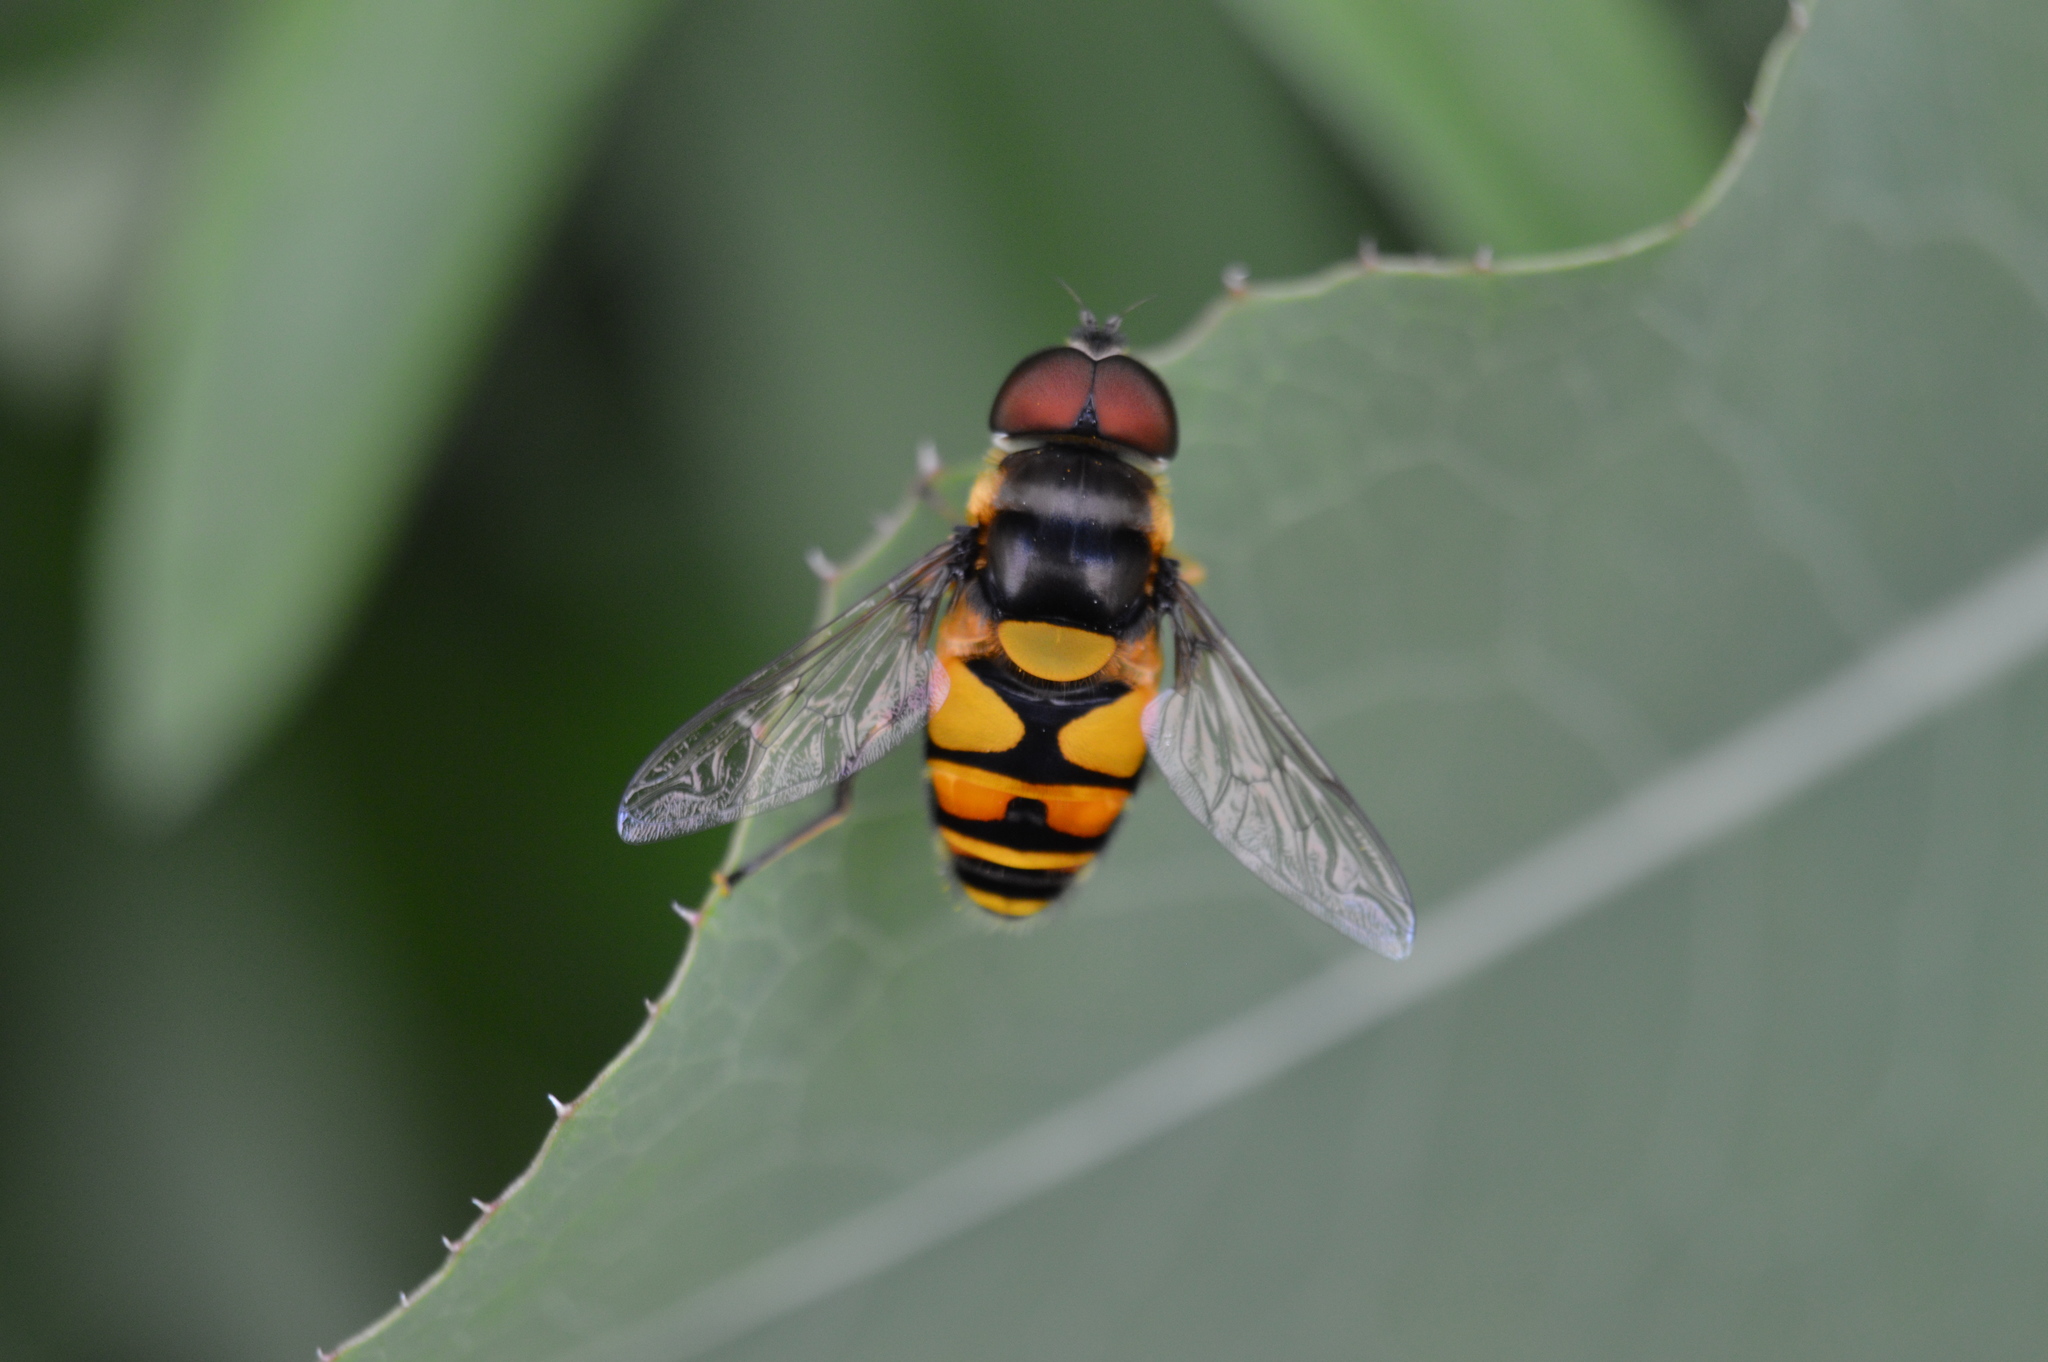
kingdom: Animalia
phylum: Arthropoda
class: Insecta
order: Diptera
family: Syrphidae
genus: Eristalis
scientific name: Eristalis transversa
